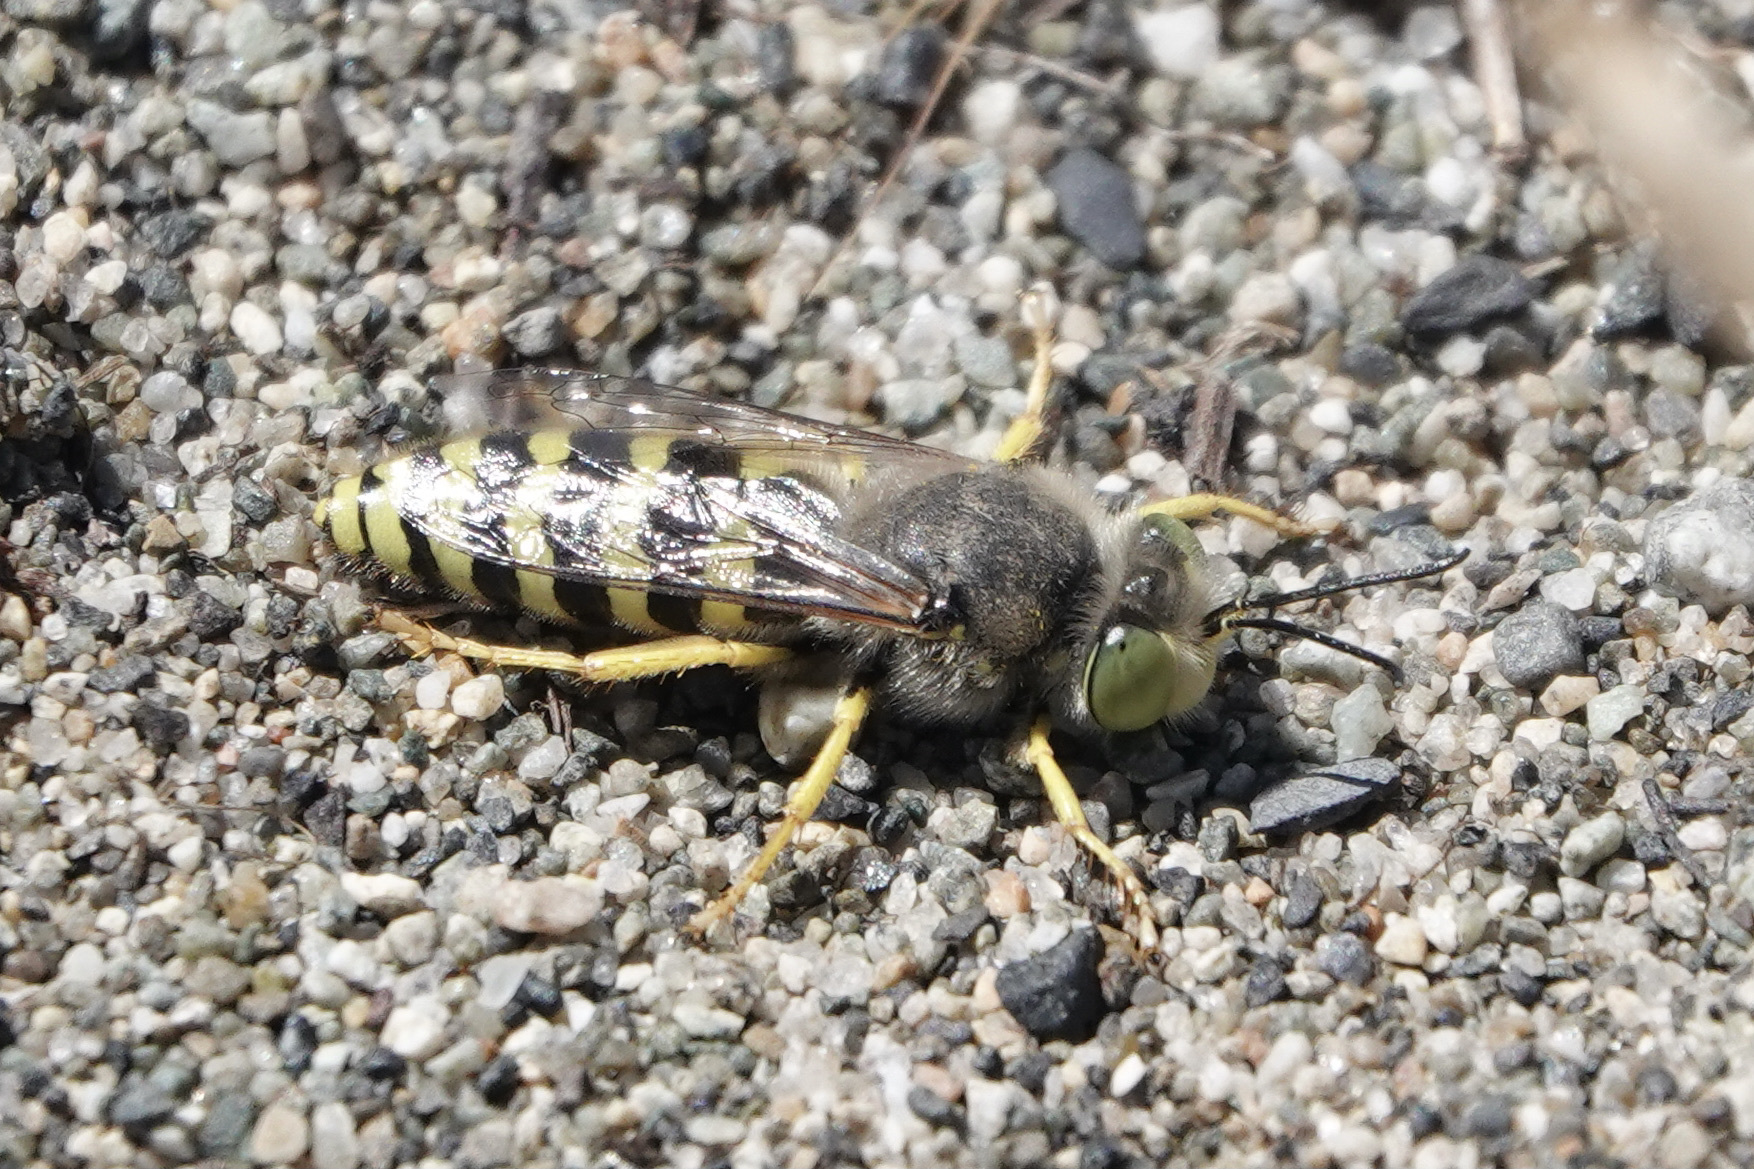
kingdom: Animalia
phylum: Arthropoda
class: Insecta
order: Hymenoptera
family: Crabronidae
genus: Bembix
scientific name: Bembix americana
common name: American sand wasp
